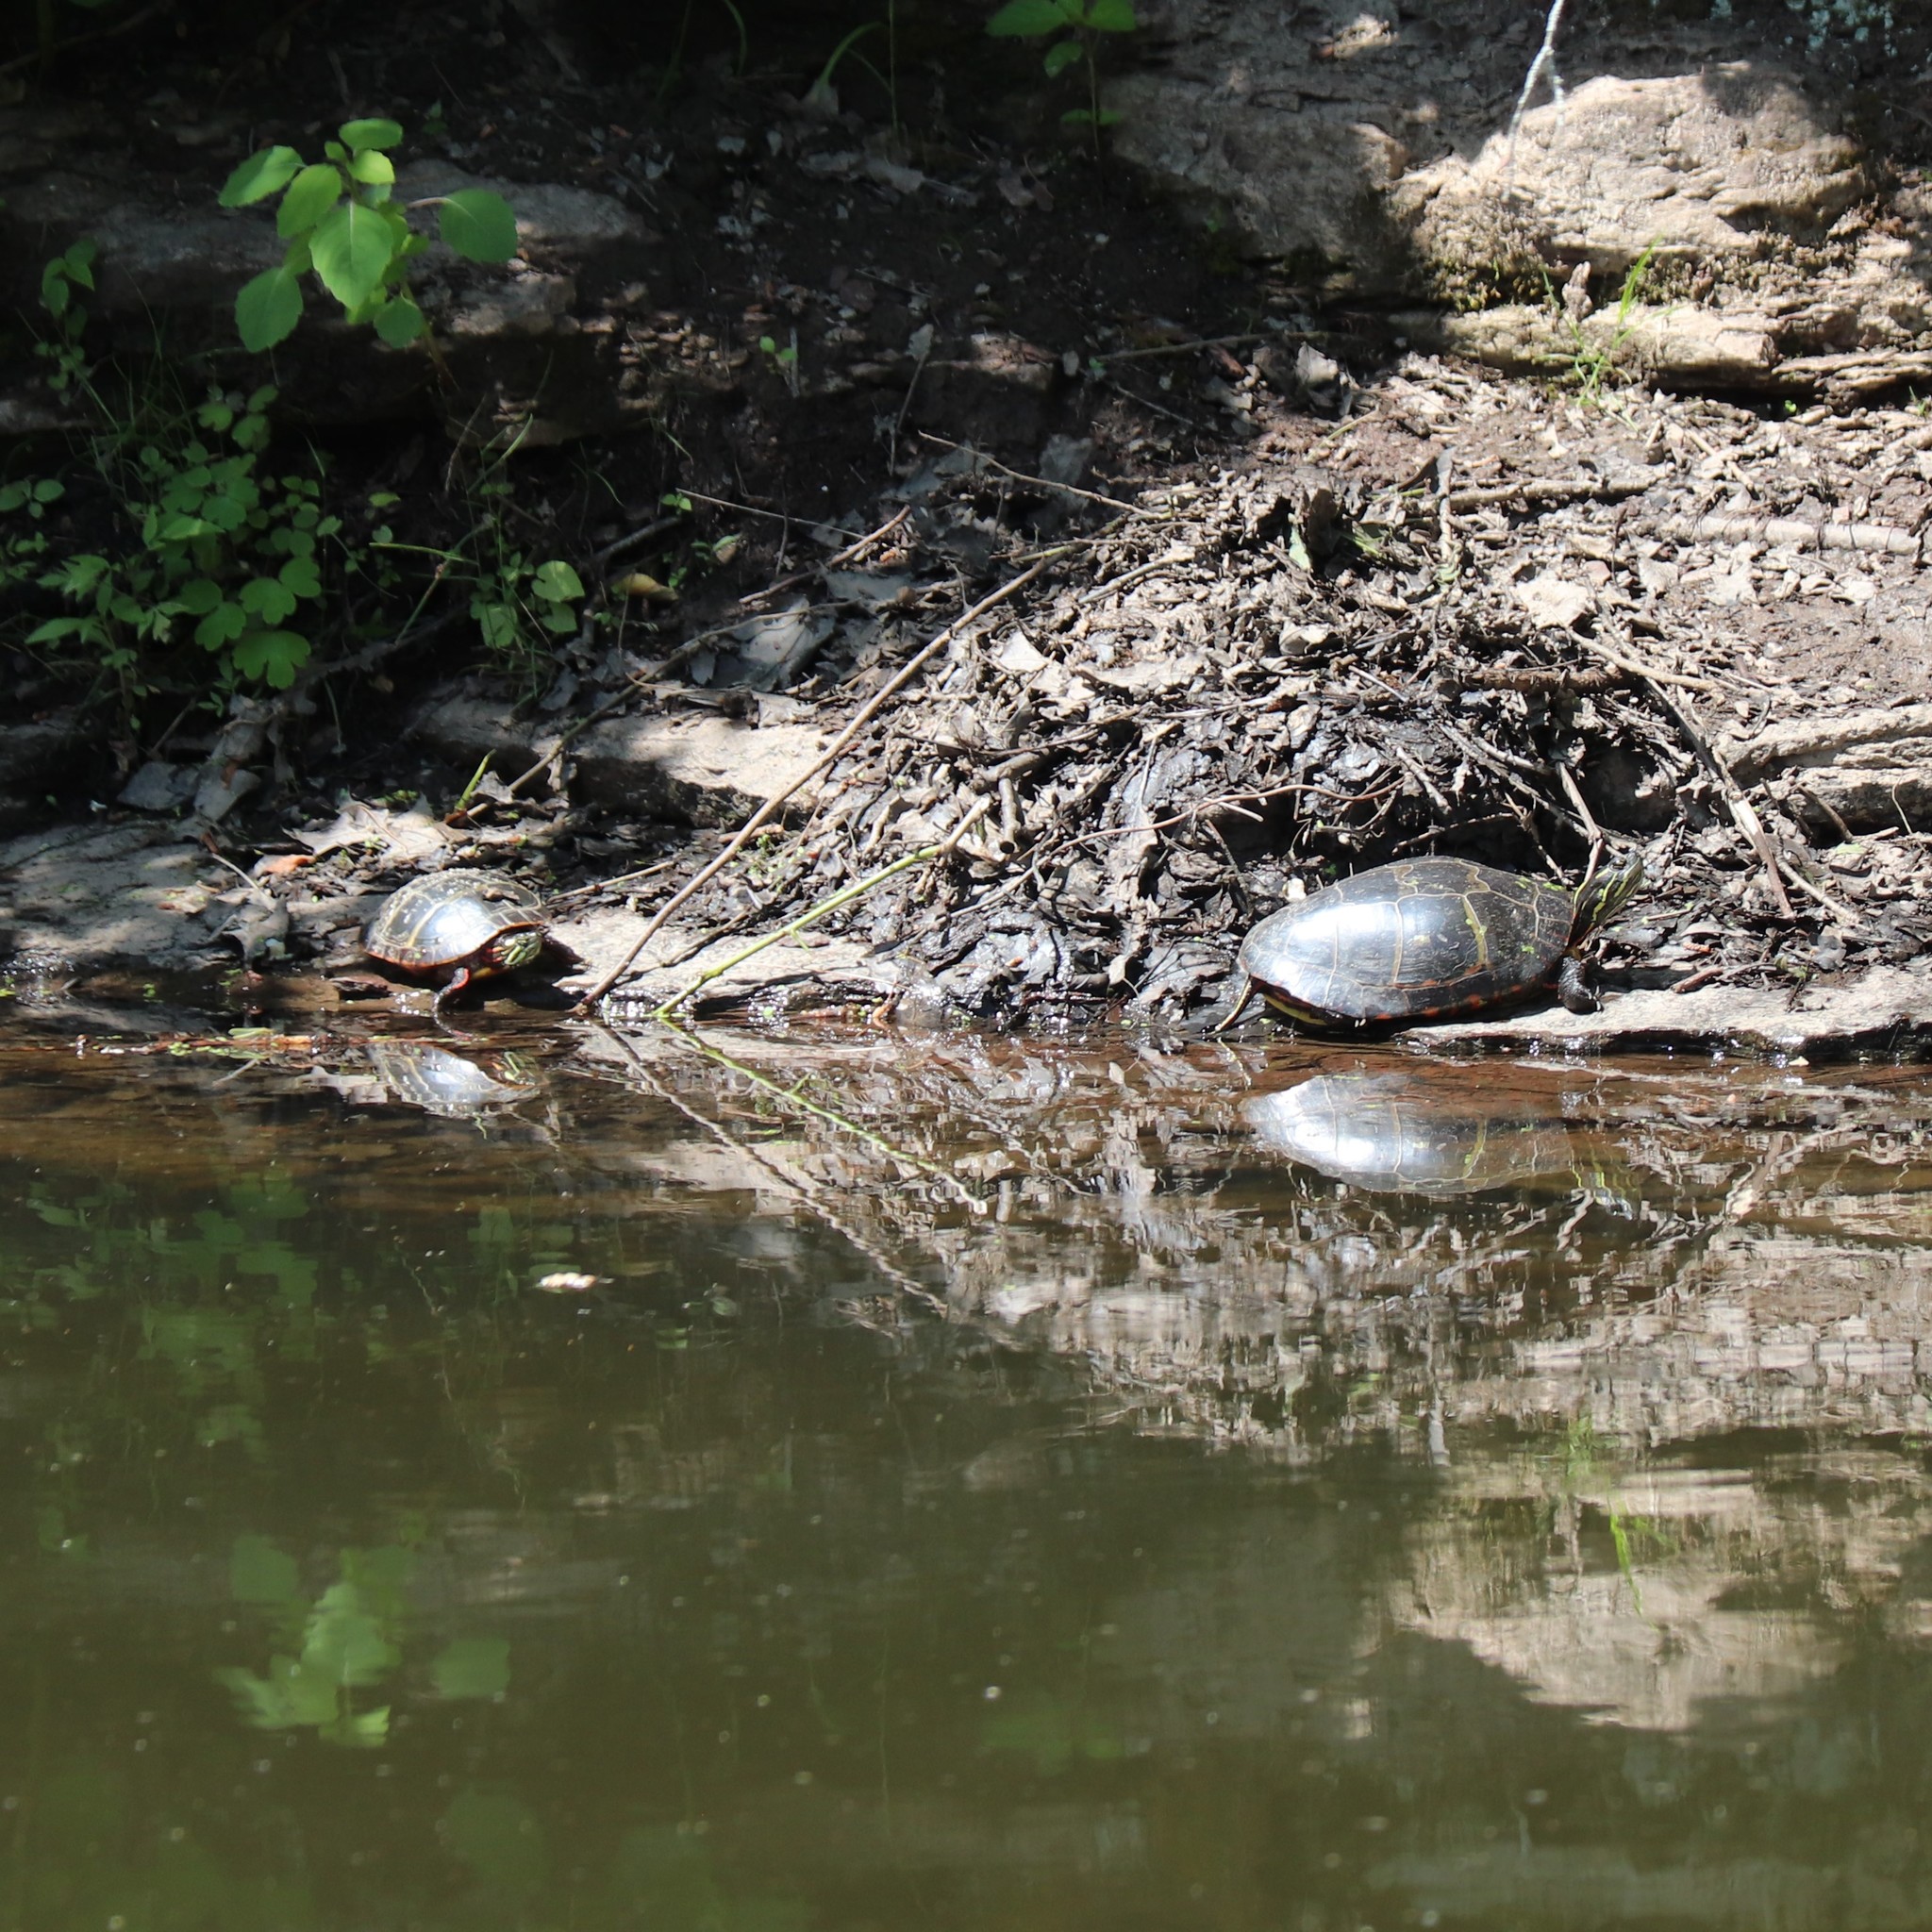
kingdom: Animalia
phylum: Chordata
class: Testudines
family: Emydidae
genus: Chrysemys
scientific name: Chrysemys picta
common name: Painted turtle
